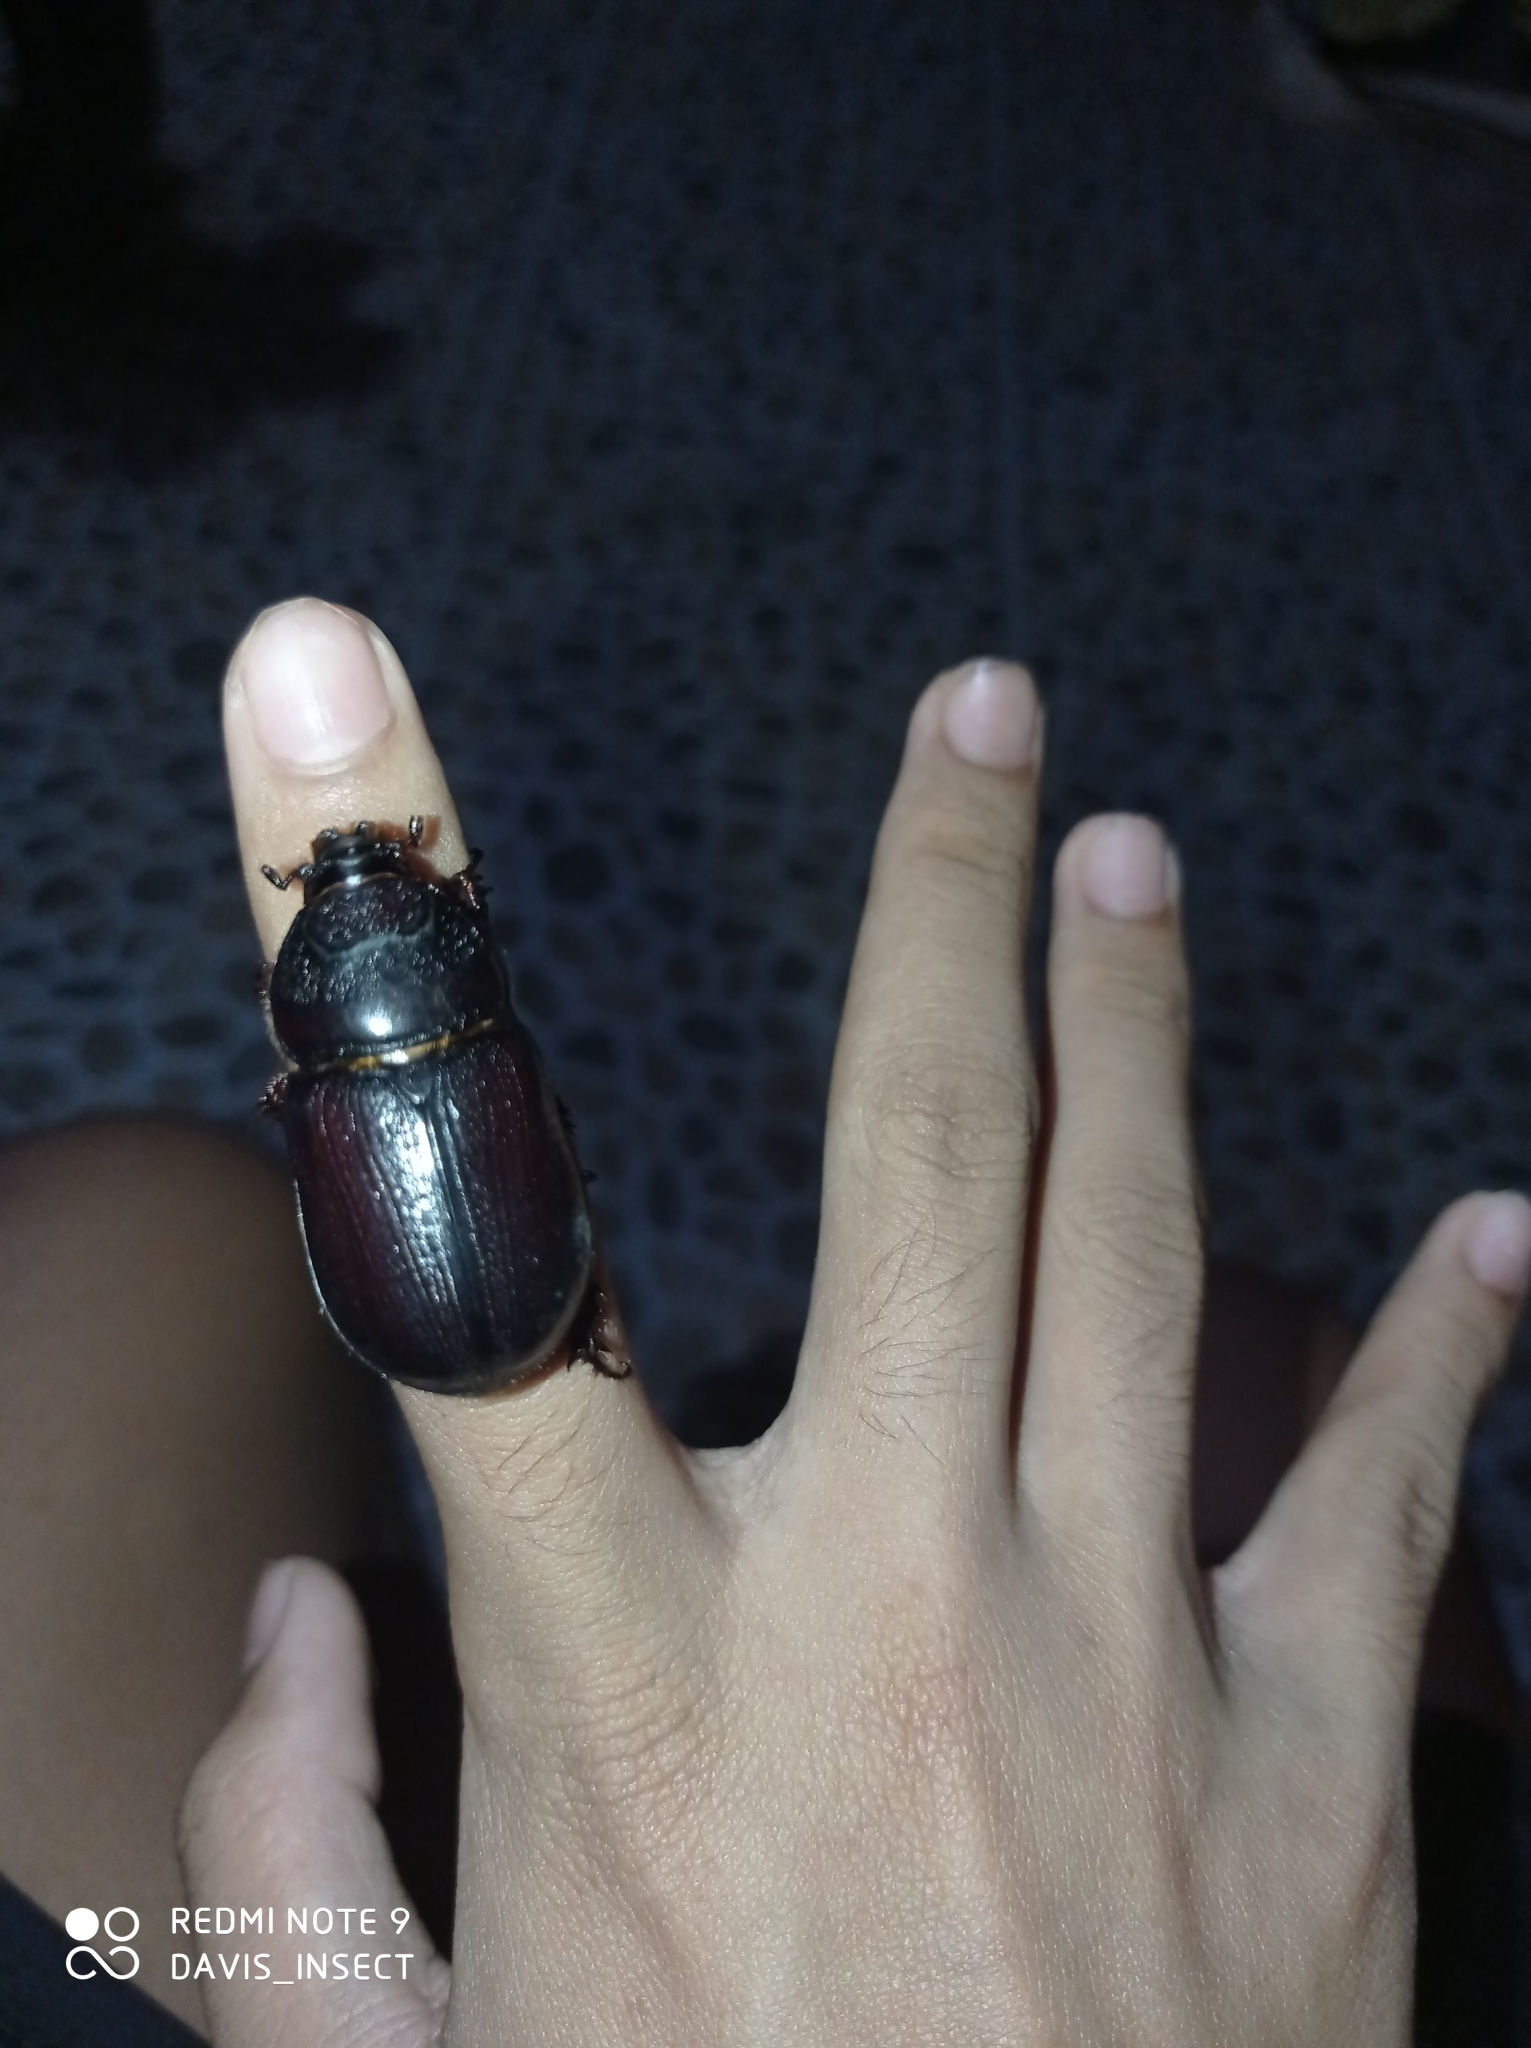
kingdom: Animalia
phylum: Arthropoda
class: Insecta
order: Coleoptera
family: Scarabaeidae
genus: Oryctes
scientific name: Oryctes rhinoceros
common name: Coconut rhinoceros beetle
